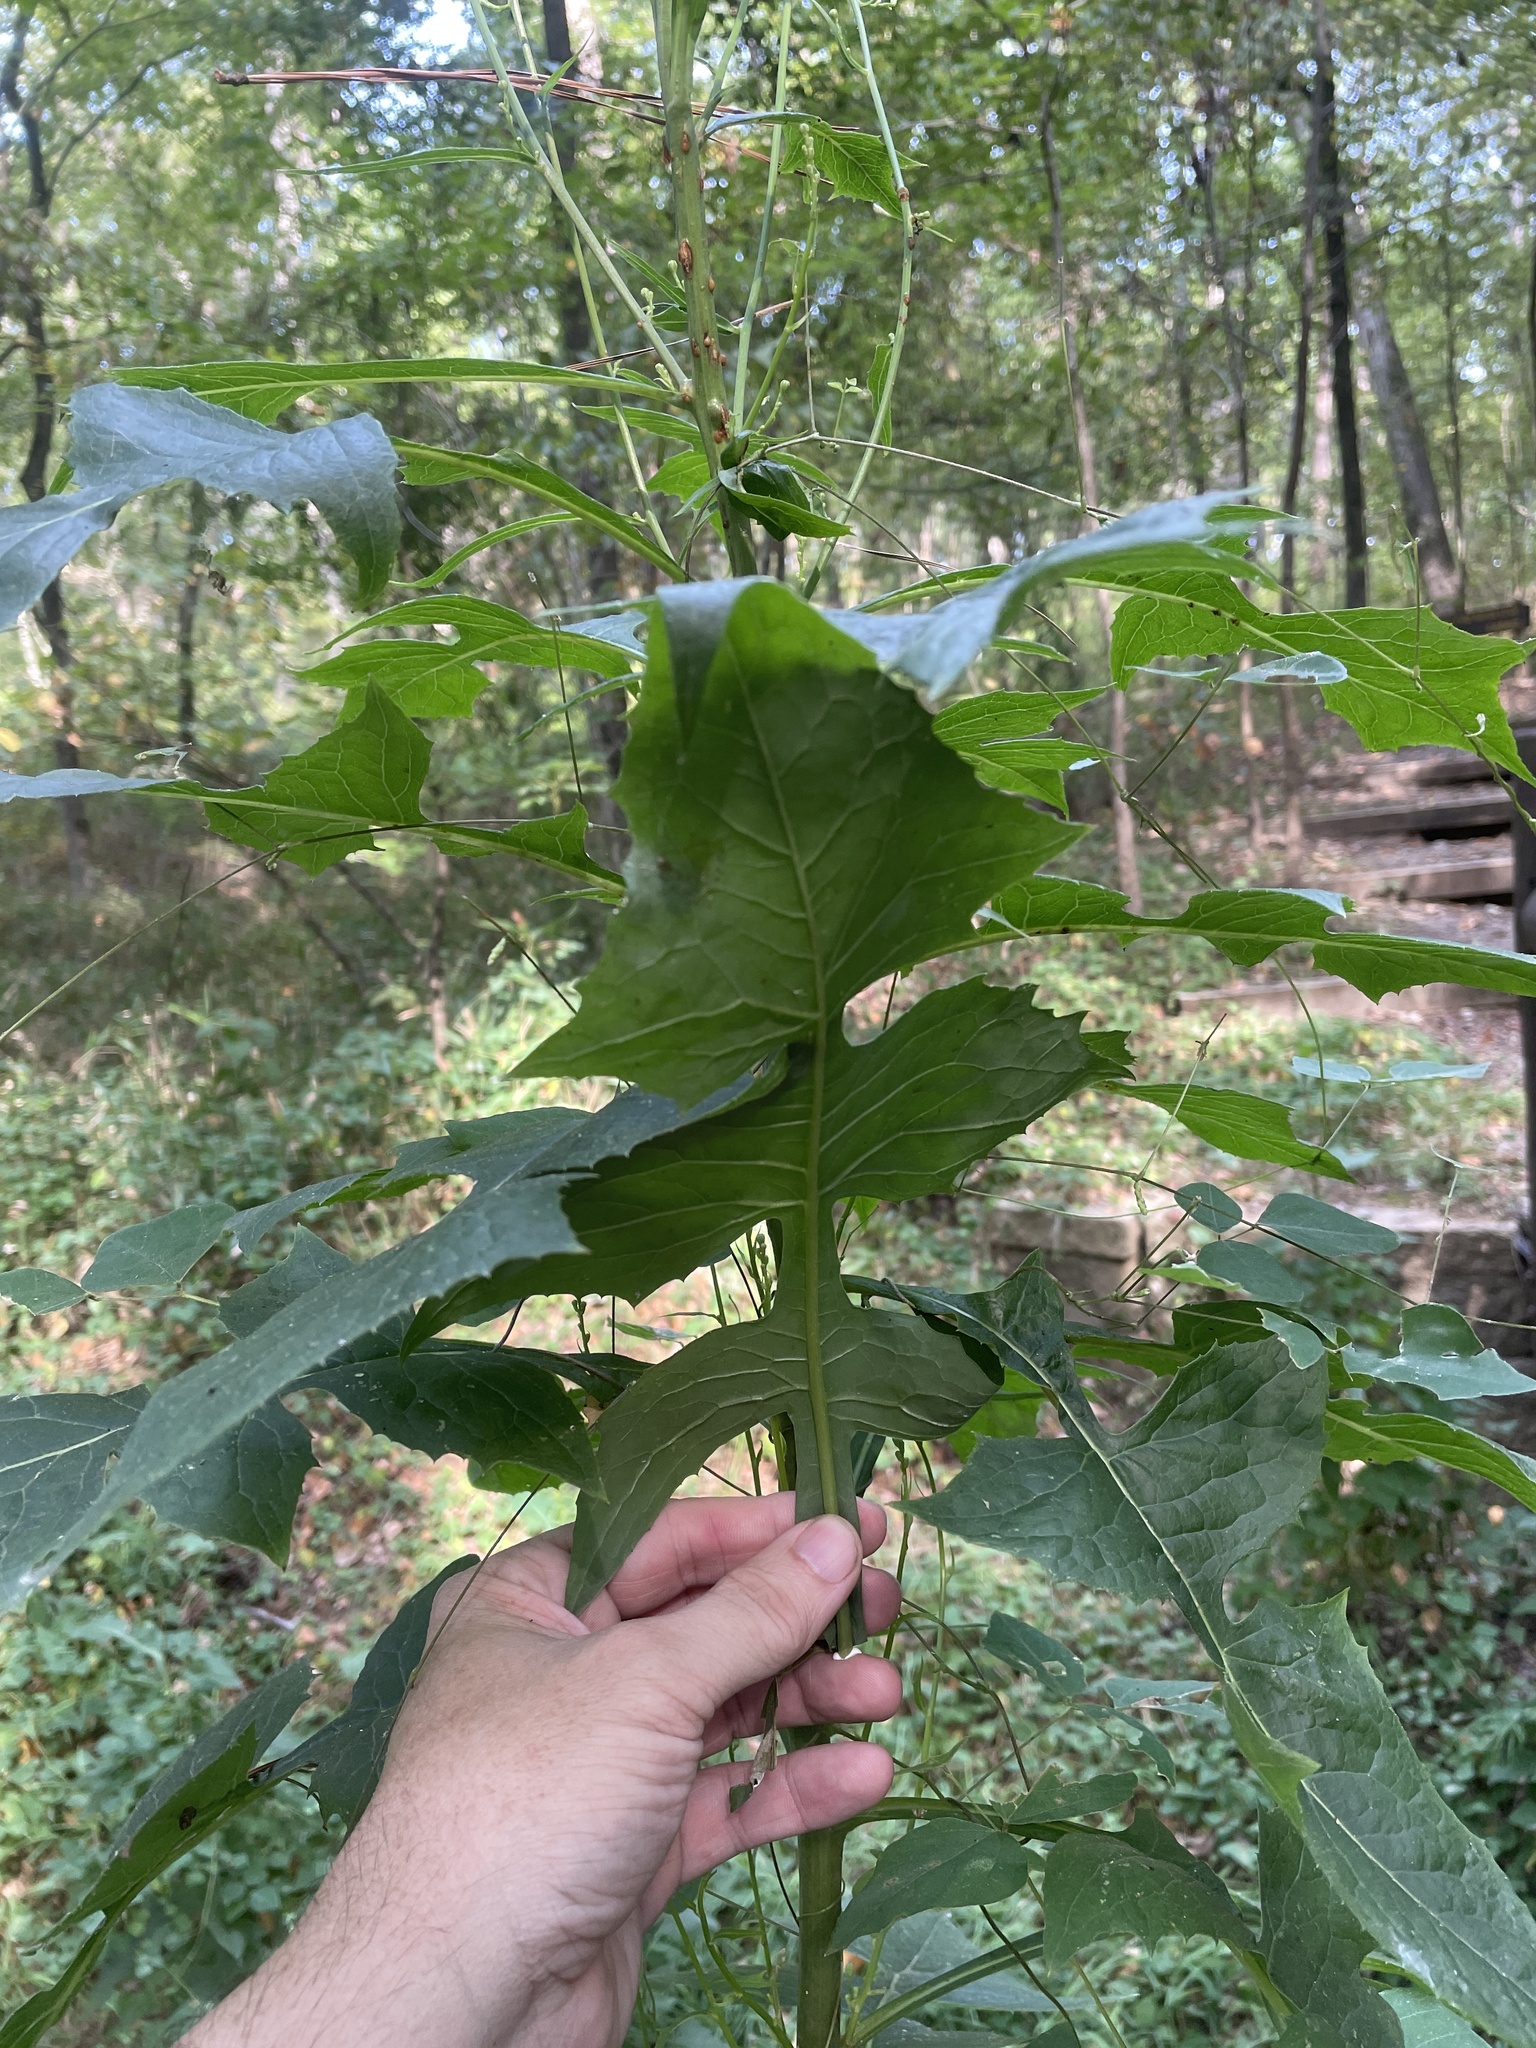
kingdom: Plantae
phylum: Tracheophyta
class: Magnoliopsida
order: Asterales
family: Asteraceae
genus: Lactuca
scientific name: Lactuca floridana
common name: Woodland lettuce
